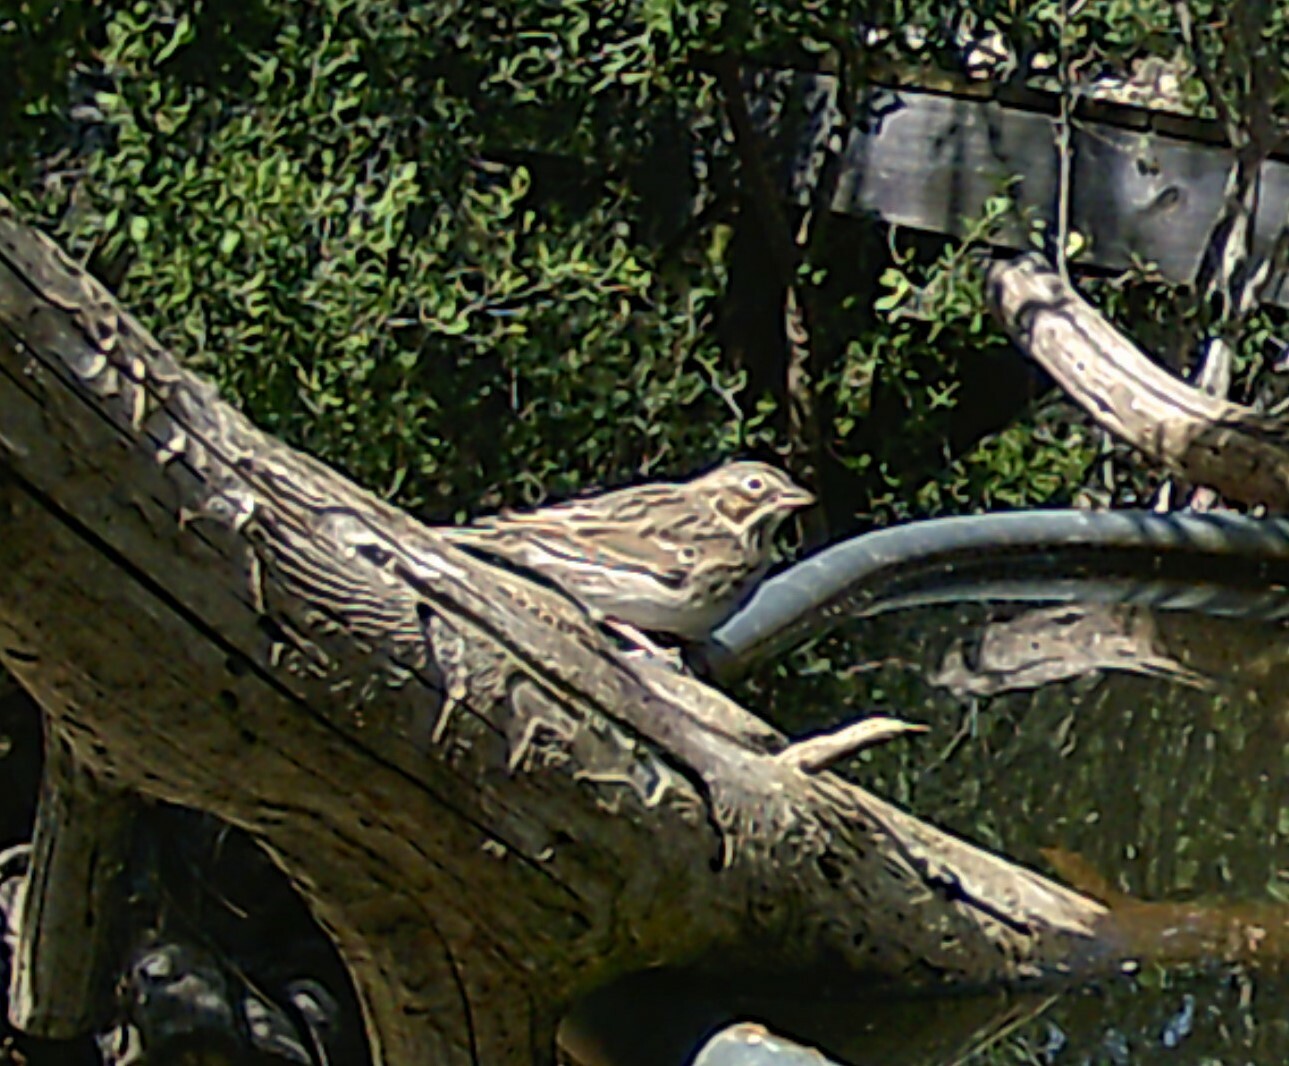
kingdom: Animalia
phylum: Chordata
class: Aves
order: Passeriformes
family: Passerellidae
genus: Pooecetes
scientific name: Pooecetes gramineus
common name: Vesper sparrow
